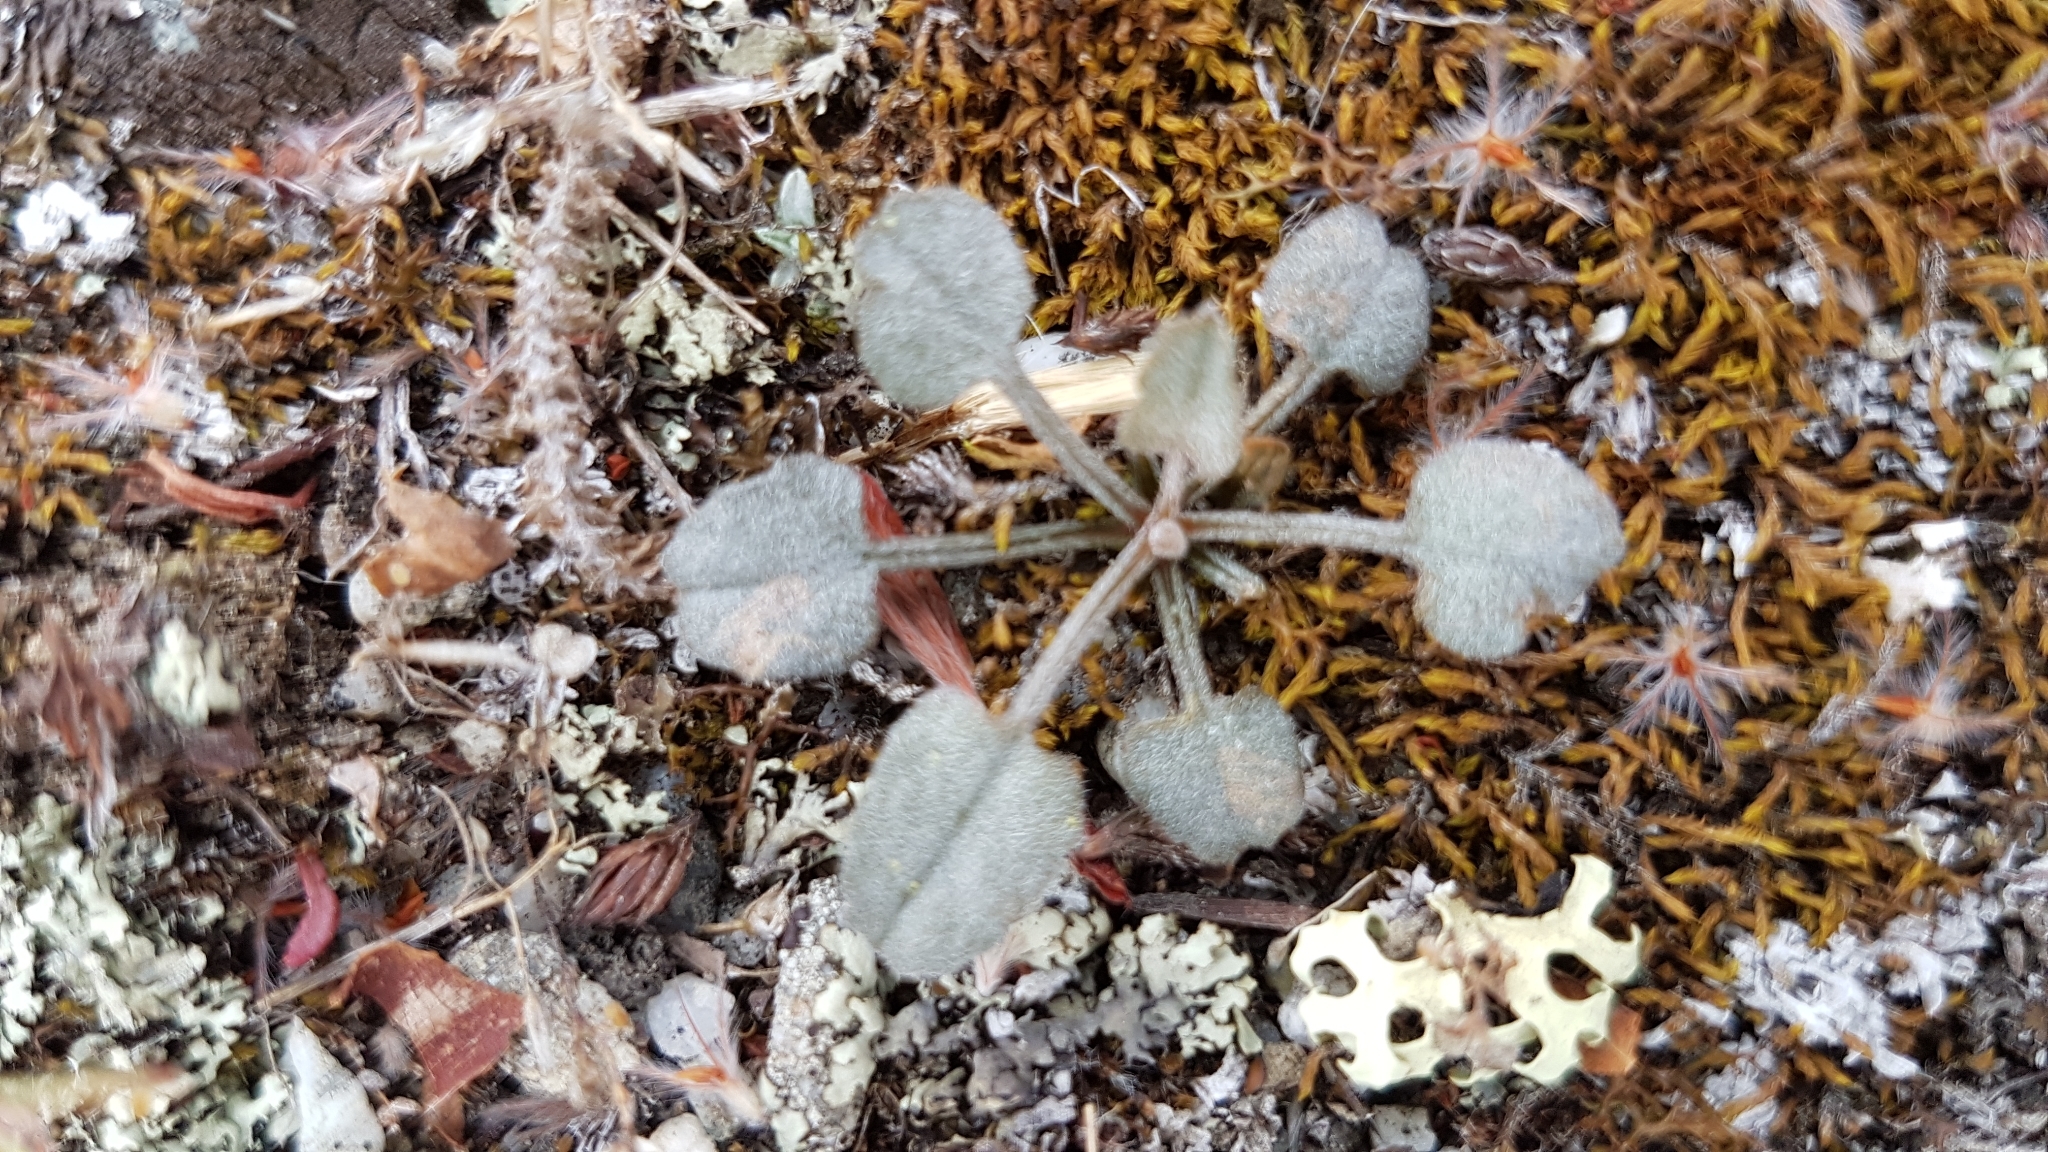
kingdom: Plantae
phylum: Tracheophyta
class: Magnoliopsida
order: Solanales
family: Convolvulaceae
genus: Convolvulus
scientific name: Convolvulus verecundus
